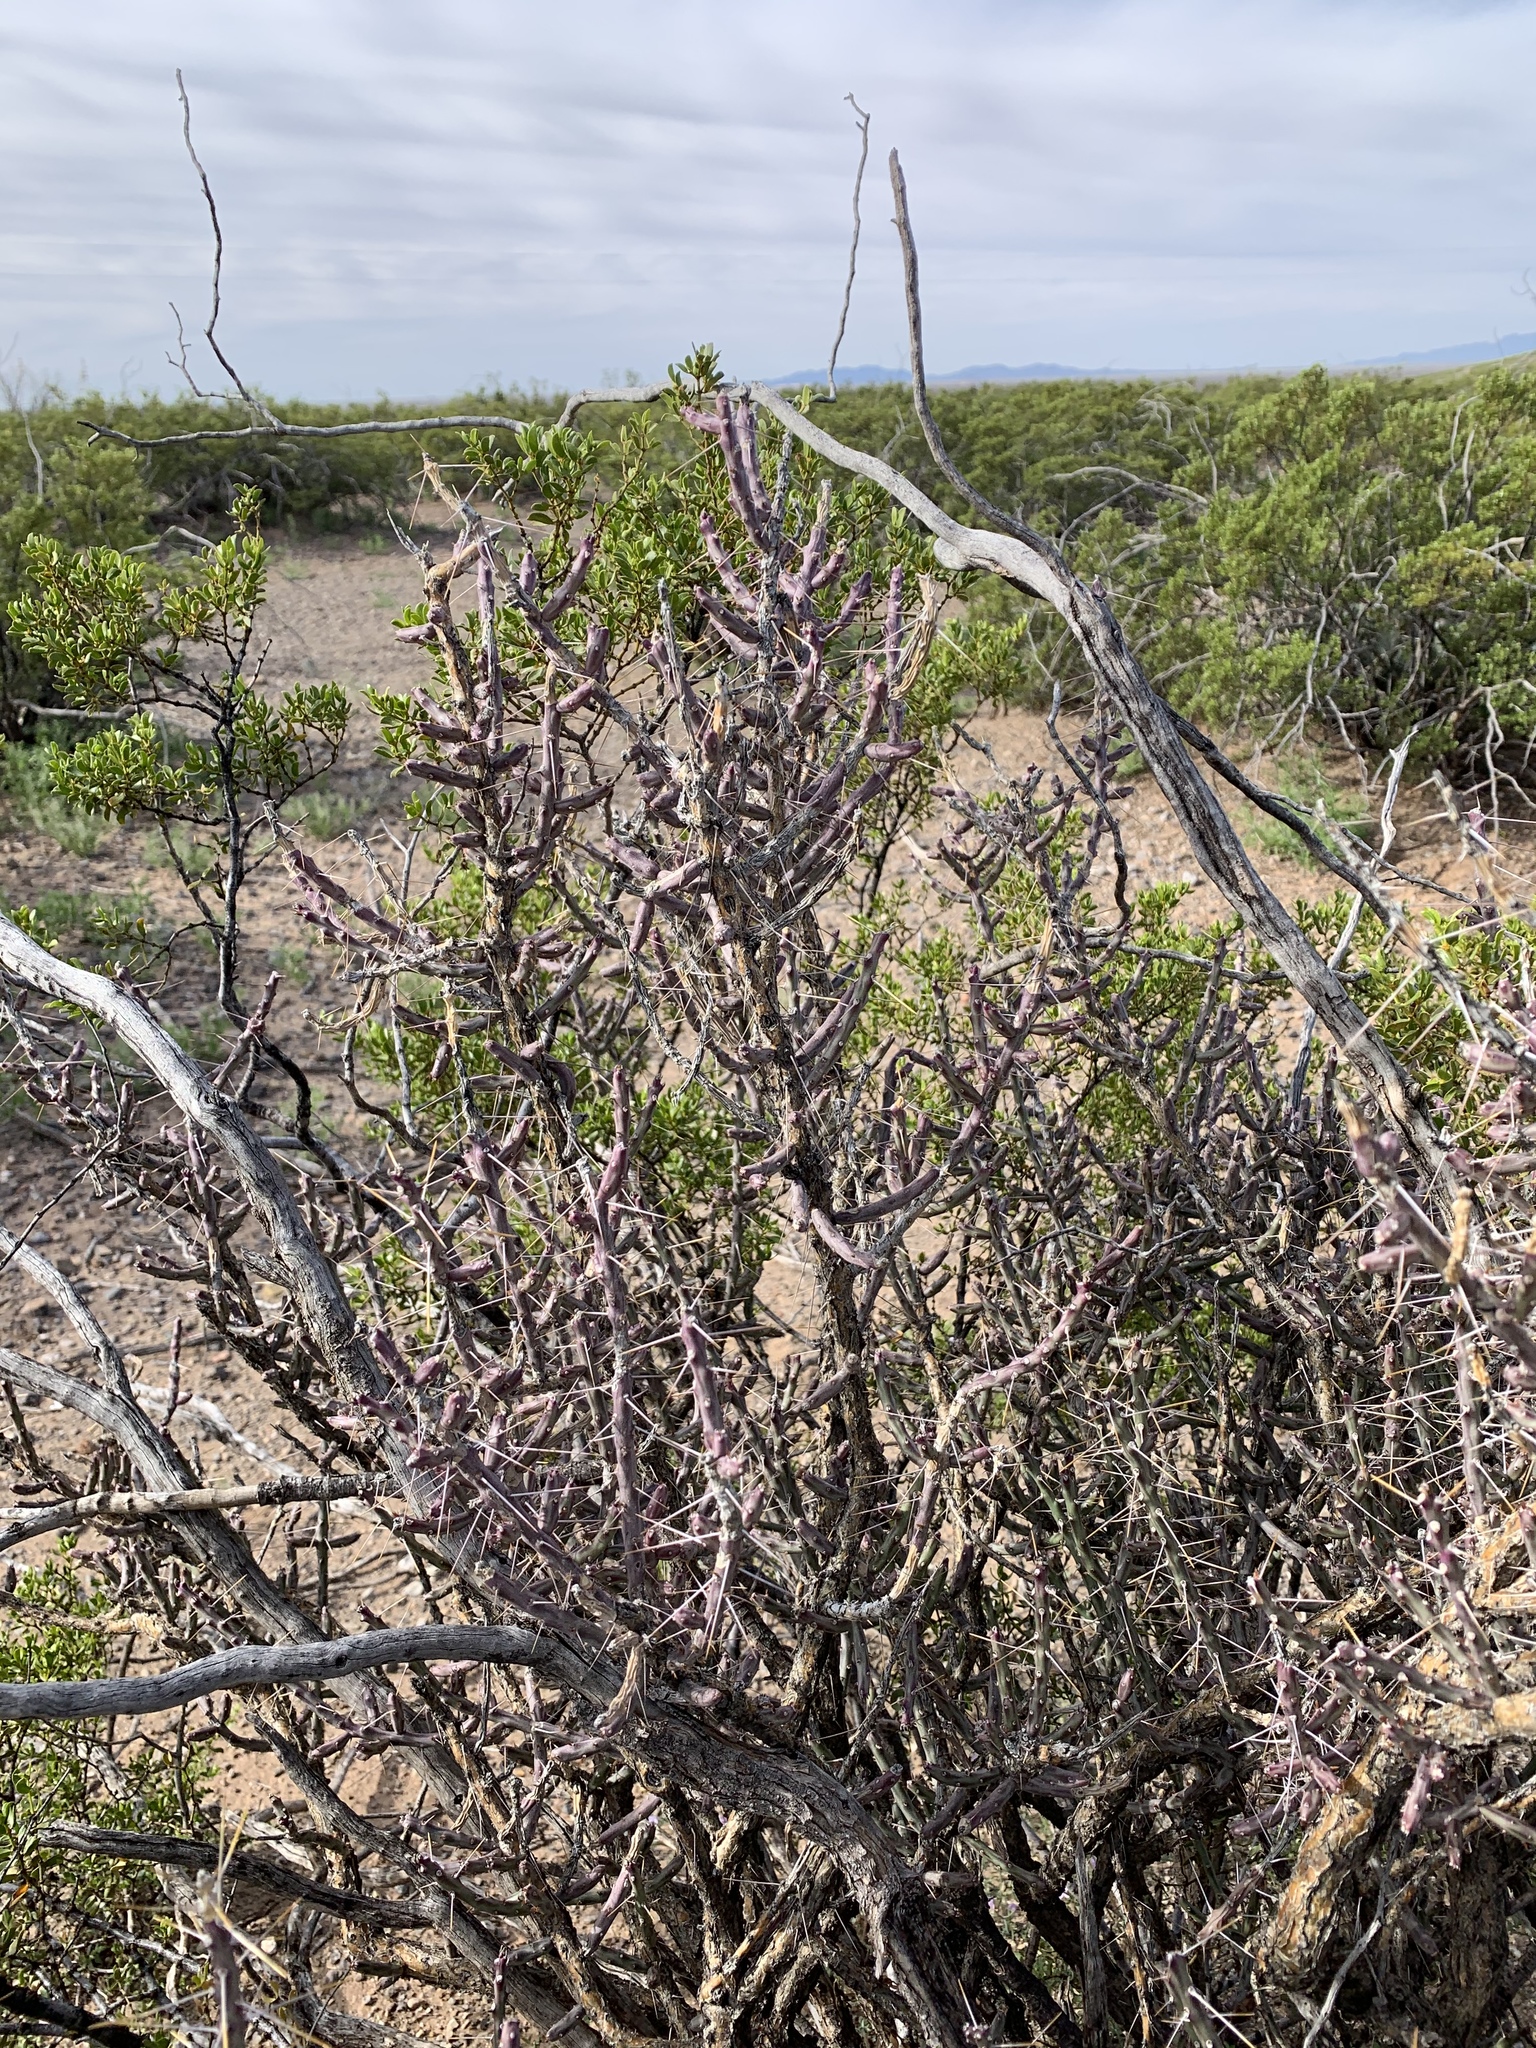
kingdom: Plantae
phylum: Tracheophyta
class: Magnoliopsida
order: Caryophyllales
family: Cactaceae
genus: Cylindropuntia
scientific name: Cylindropuntia leptocaulis
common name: Christmas cactus
